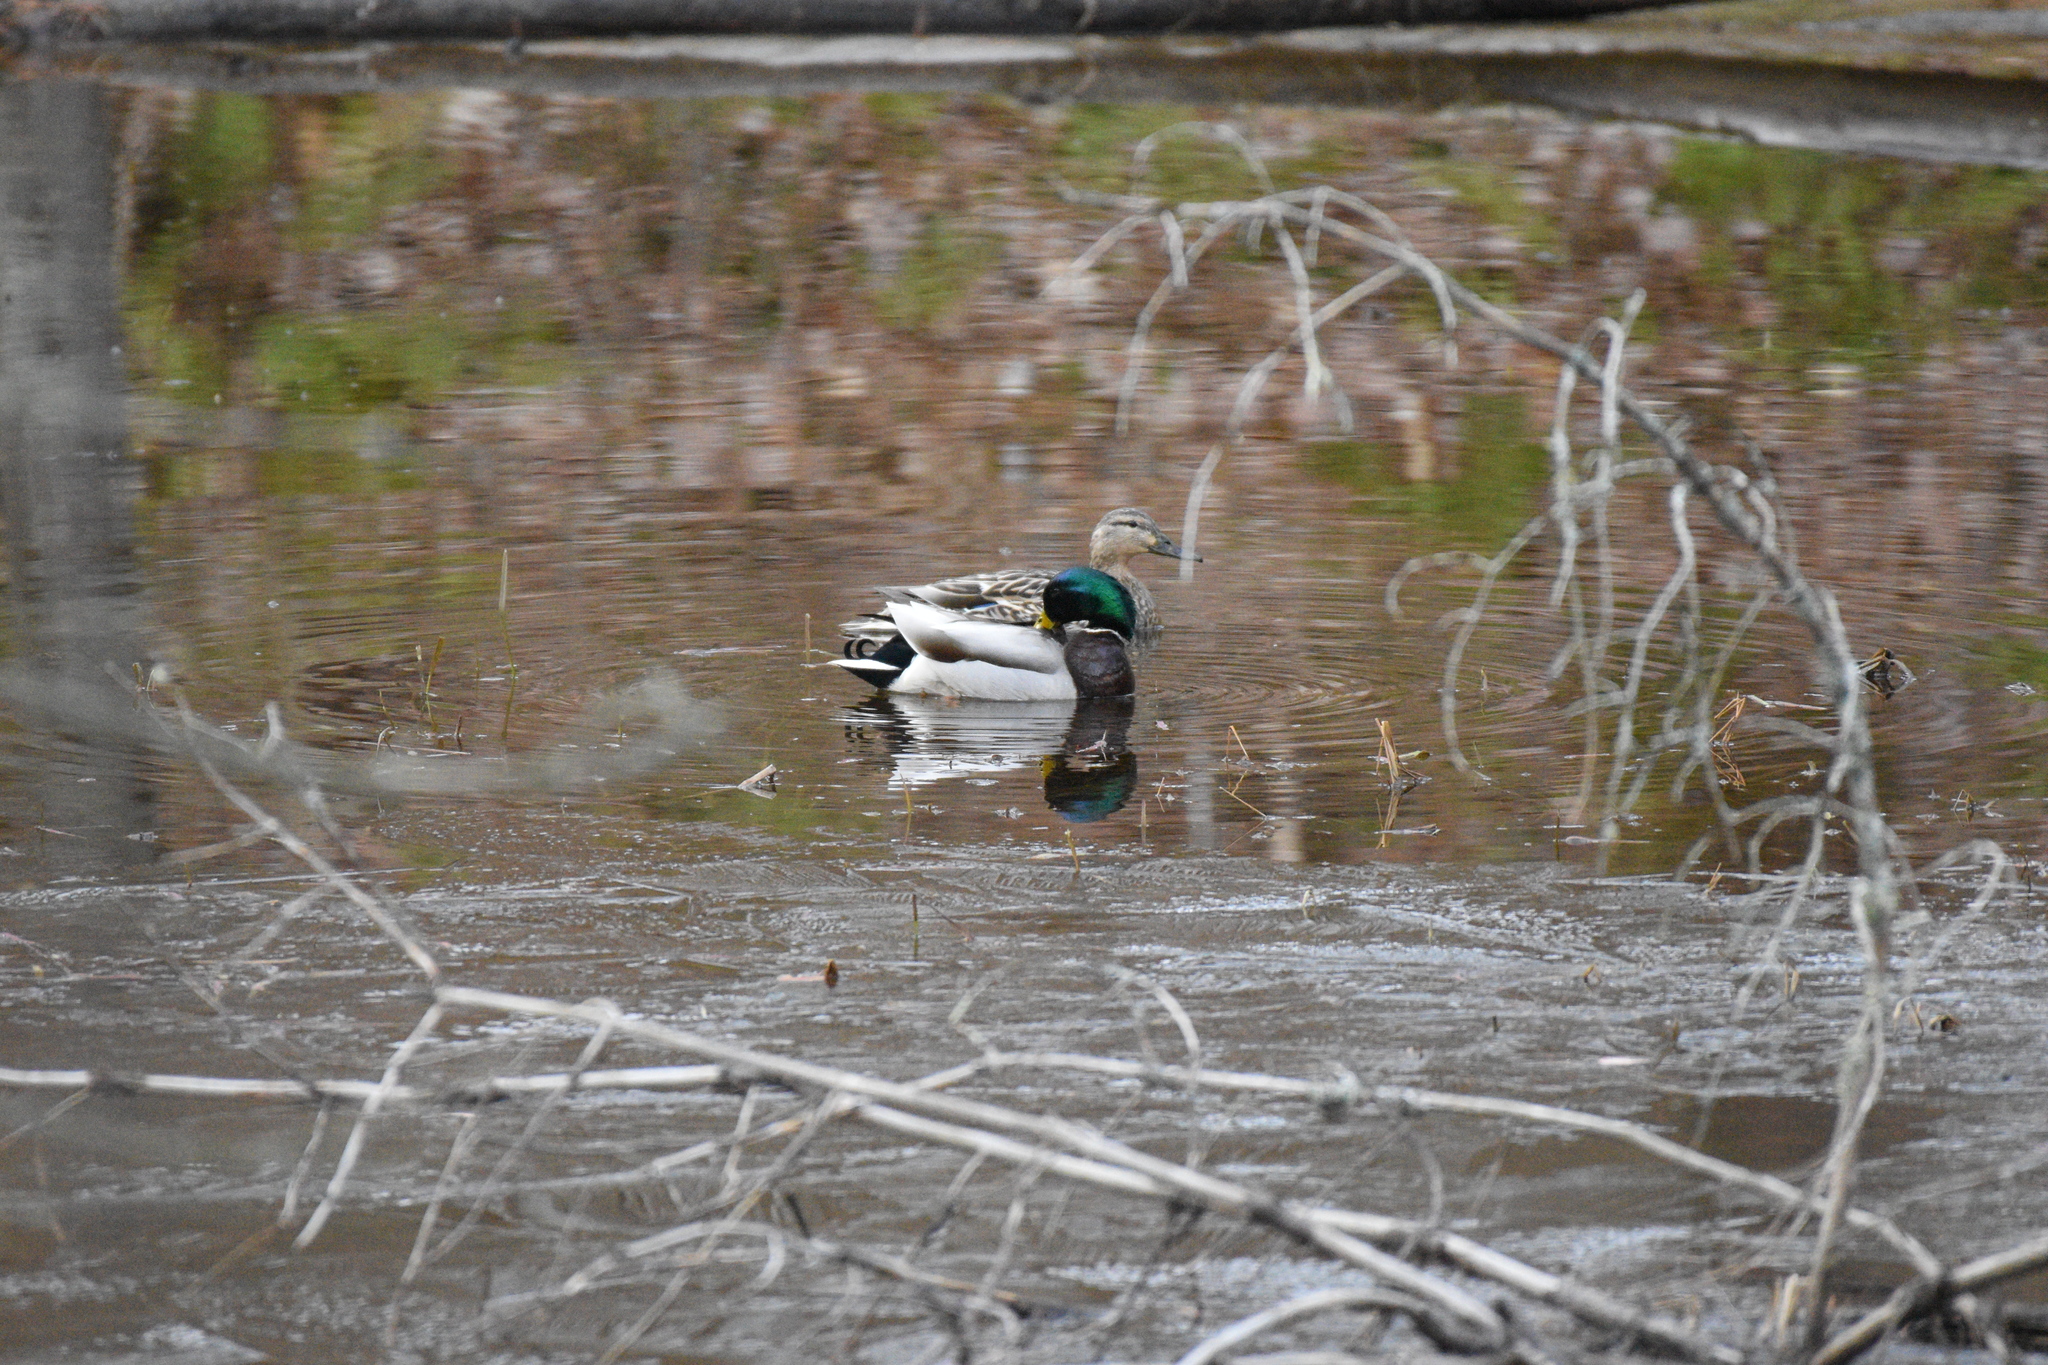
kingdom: Animalia
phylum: Chordata
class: Aves
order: Anseriformes
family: Anatidae
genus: Anas
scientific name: Anas platyrhynchos
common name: Mallard
